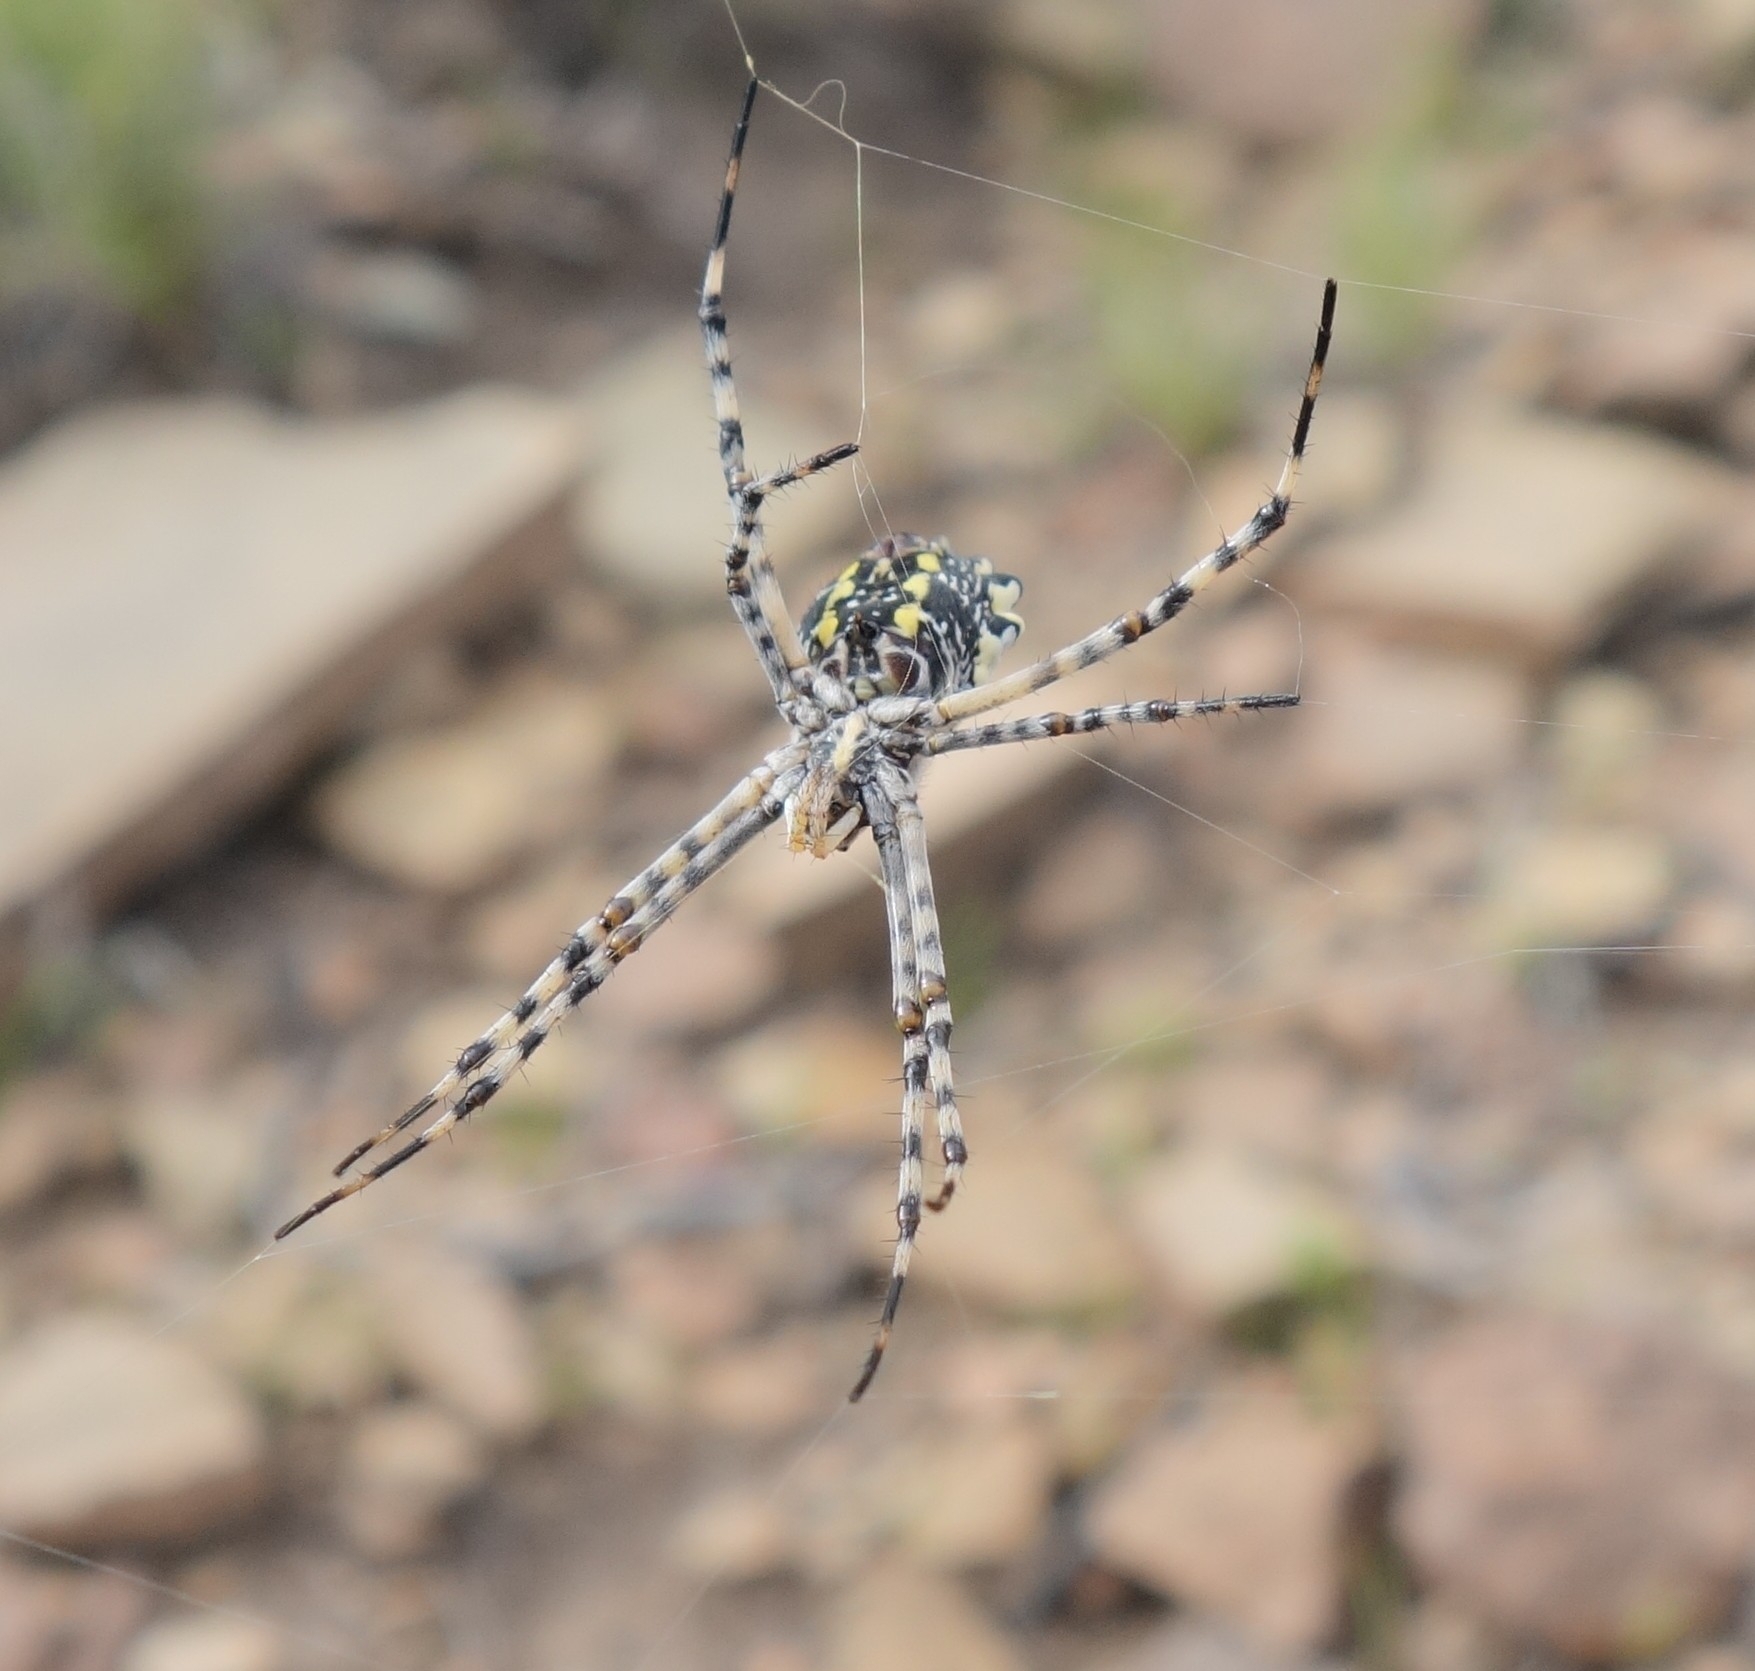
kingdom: Animalia
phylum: Arthropoda
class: Arachnida
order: Araneae
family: Araneidae
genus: Argiope
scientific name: Argiope australis
